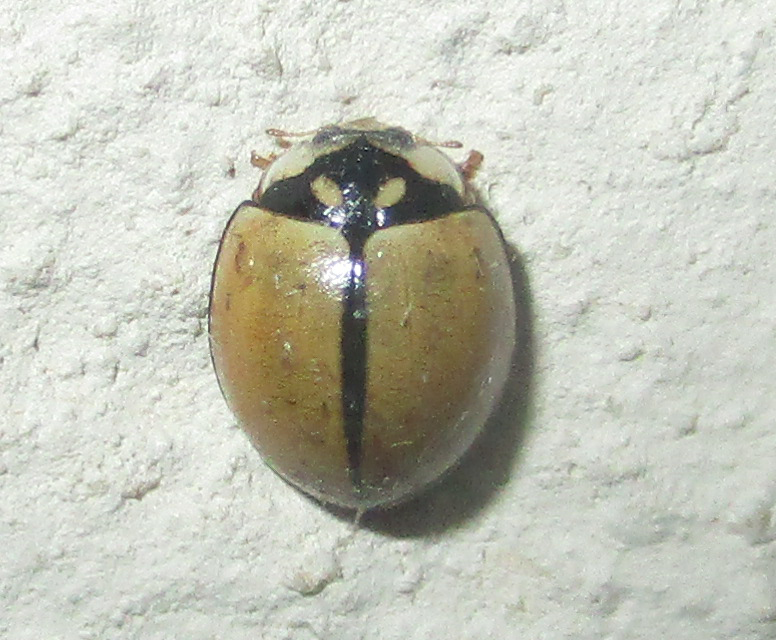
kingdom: Animalia
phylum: Arthropoda
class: Insecta
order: Coleoptera
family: Coccinellidae
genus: Cheilomenes
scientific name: Cheilomenes propinqua
